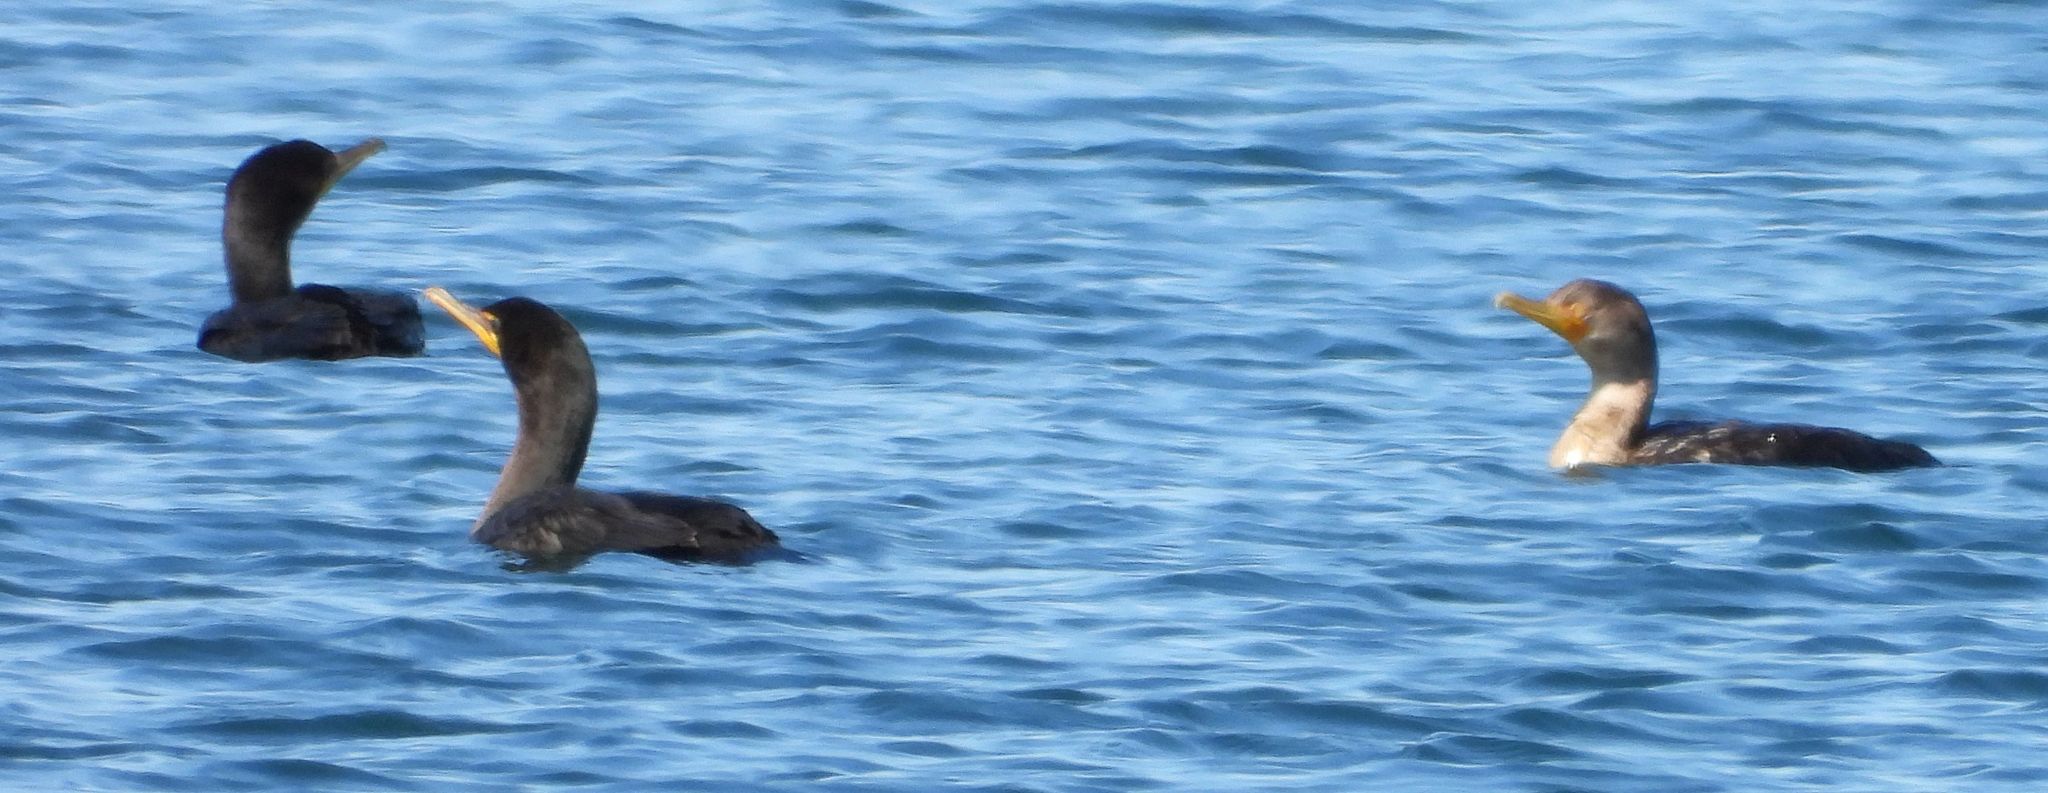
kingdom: Animalia
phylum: Chordata
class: Aves
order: Suliformes
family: Phalacrocoracidae
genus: Phalacrocorax
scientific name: Phalacrocorax auritus
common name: Double-crested cormorant
